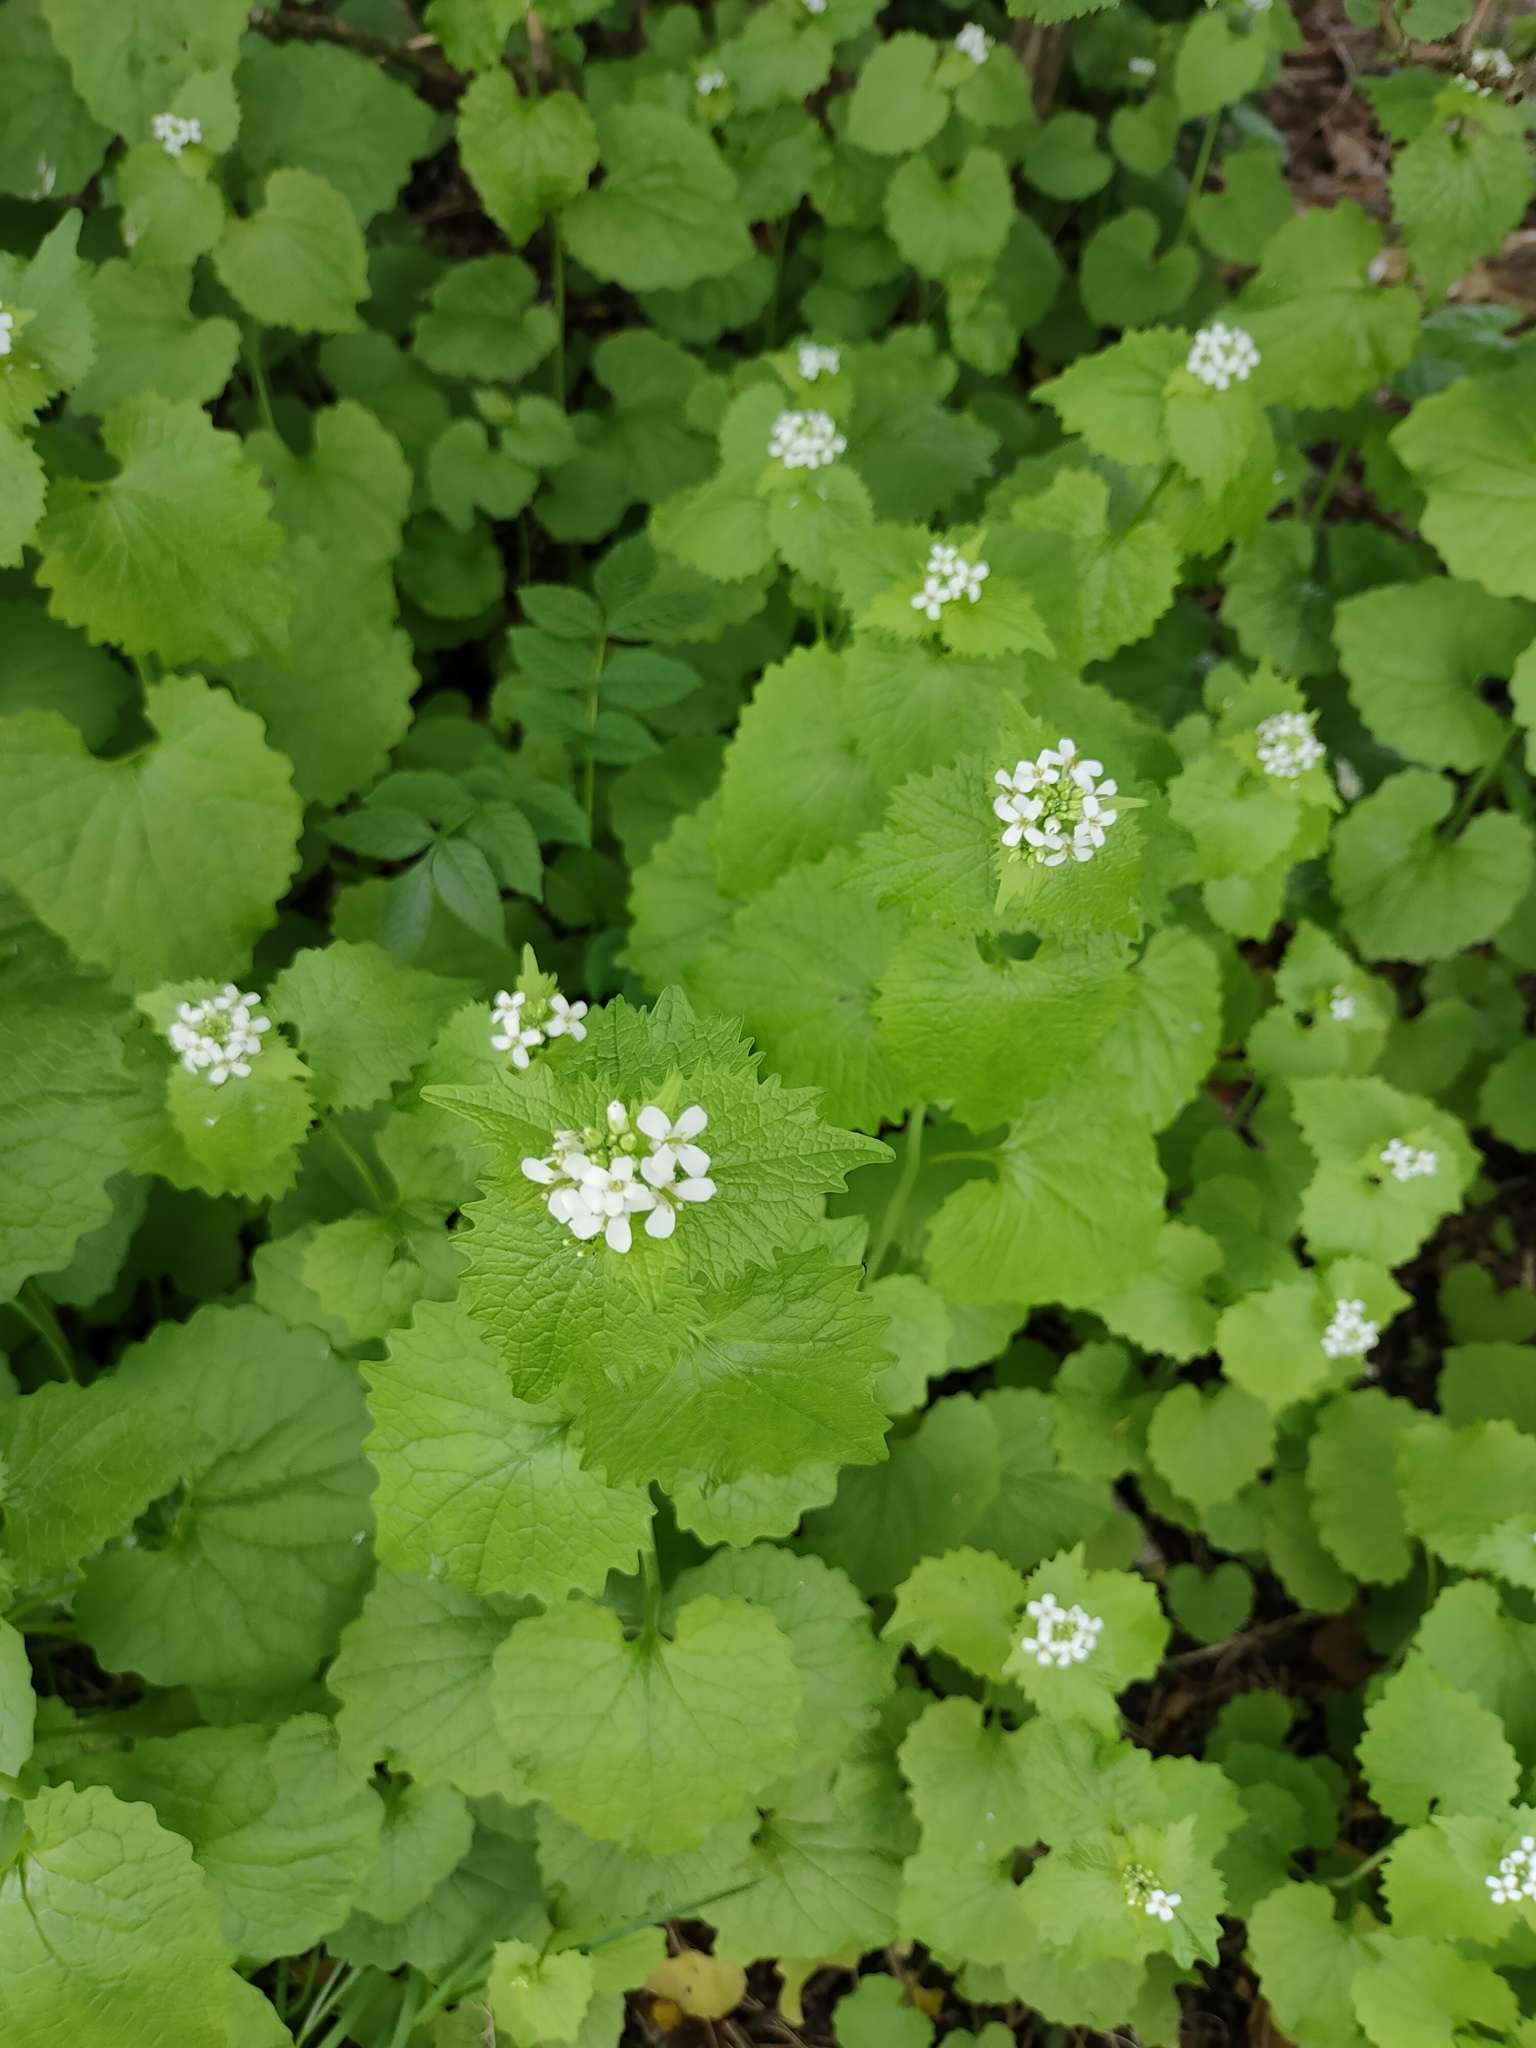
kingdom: Plantae
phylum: Tracheophyta
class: Magnoliopsida
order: Brassicales
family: Brassicaceae
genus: Alliaria
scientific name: Alliaria petiolata
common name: Garlic mustard
